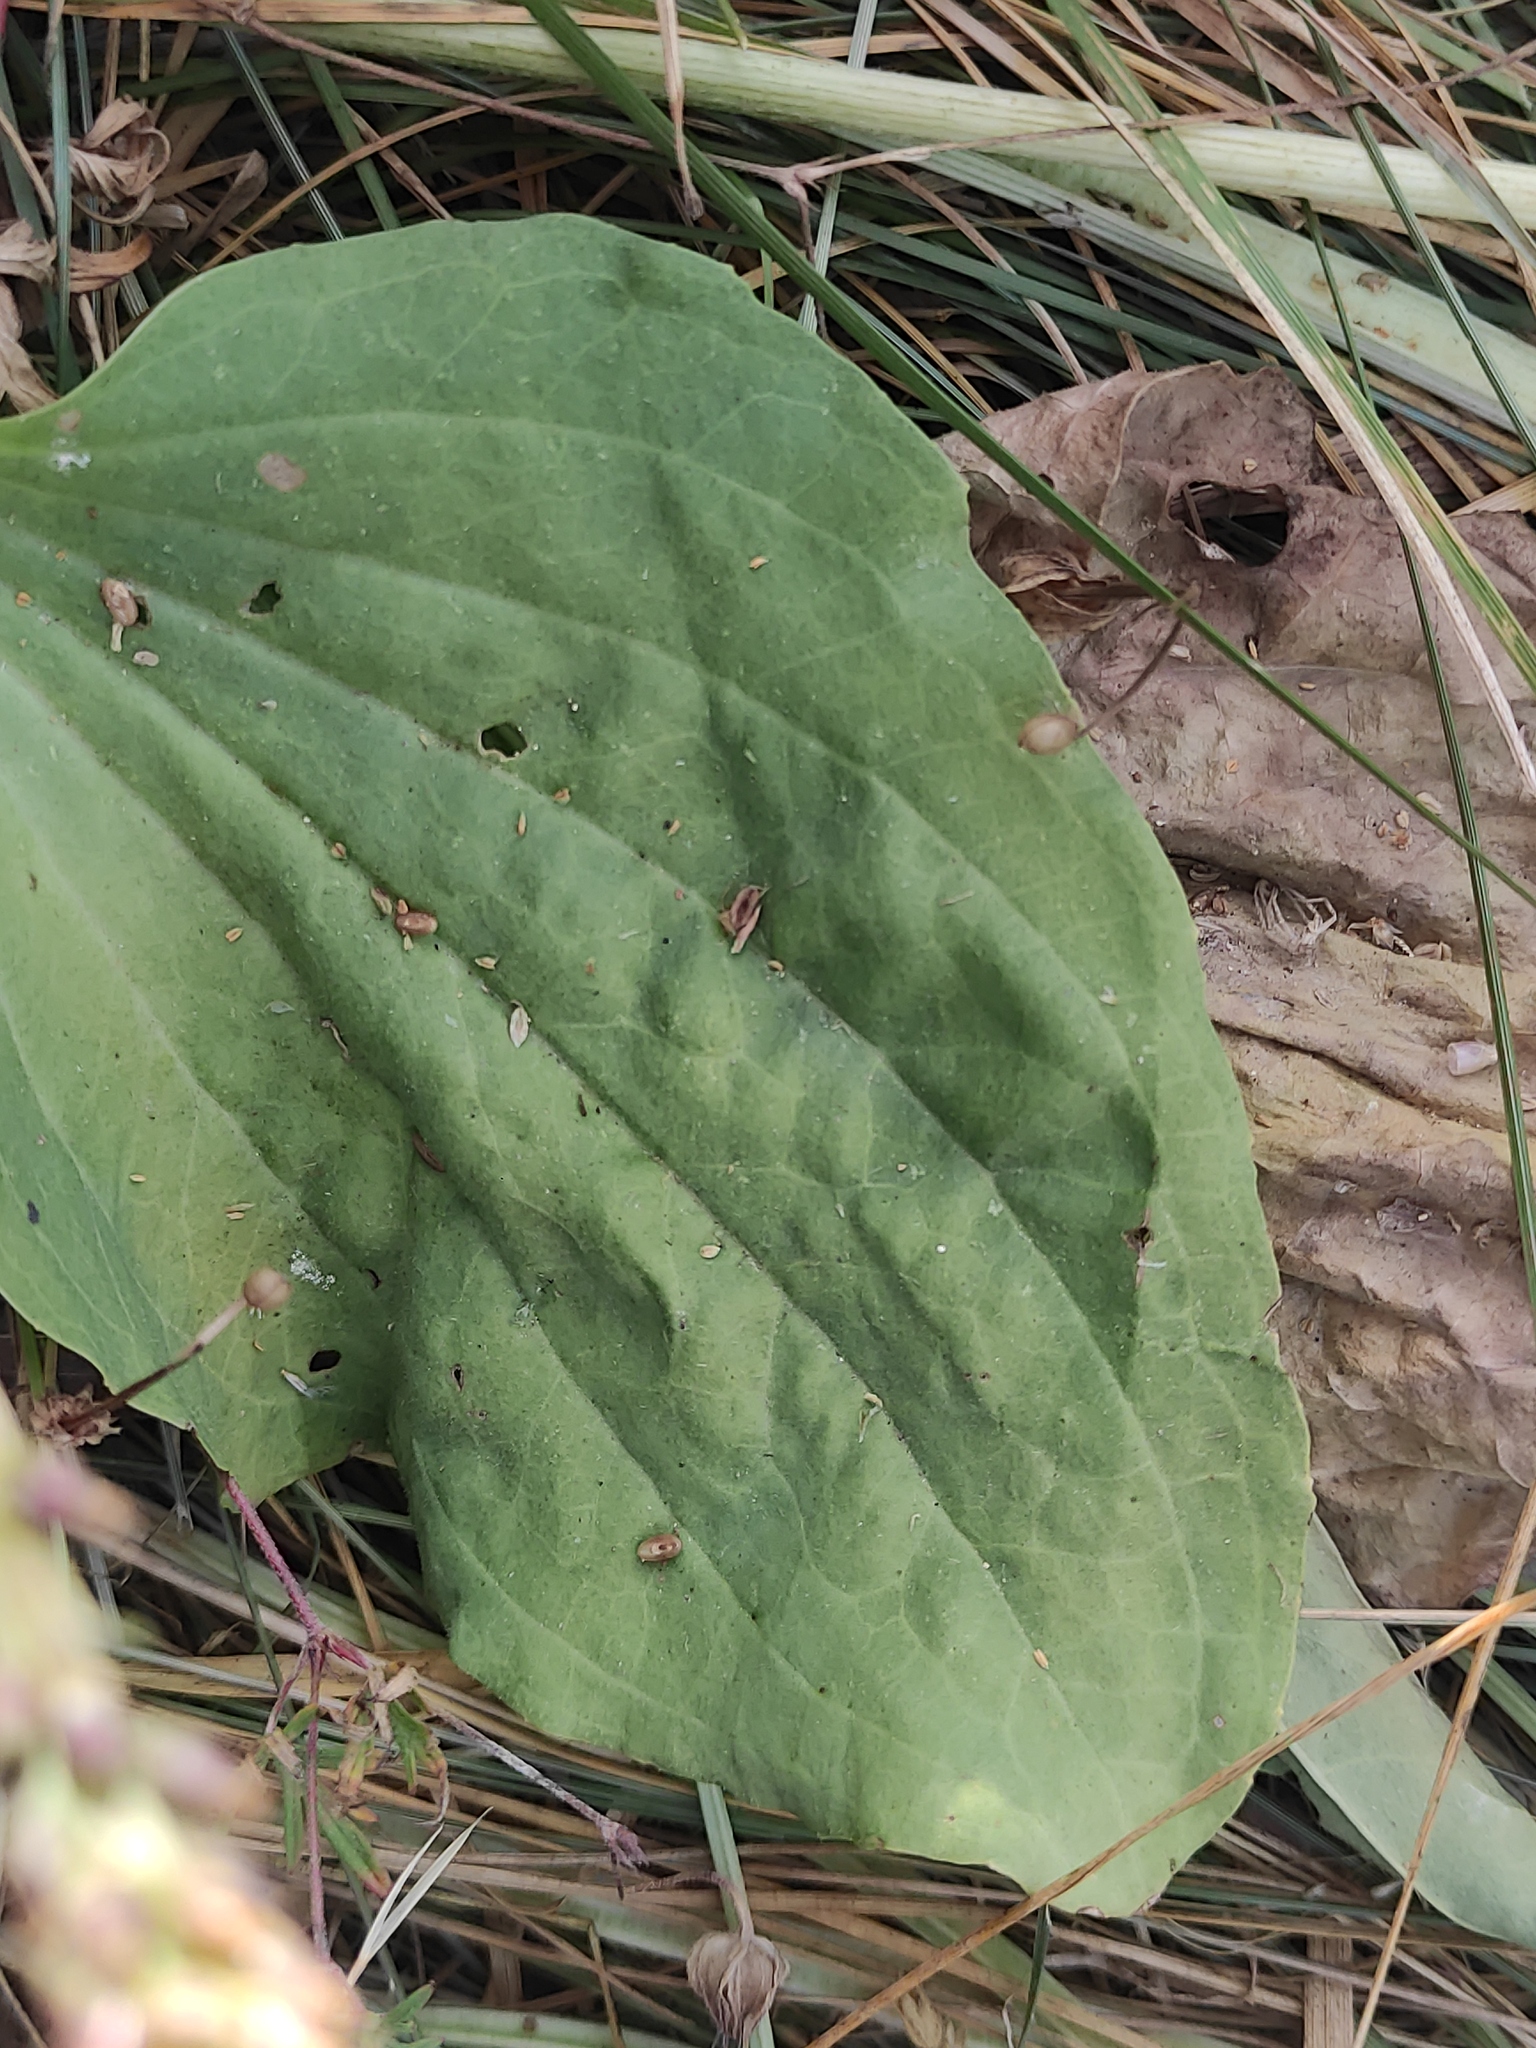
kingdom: Plantae
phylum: Tracheophyta
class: Magnoliopsida
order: Lamiales
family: Plantaginaceae
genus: Plantago
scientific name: Plantago major
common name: Common plantain
